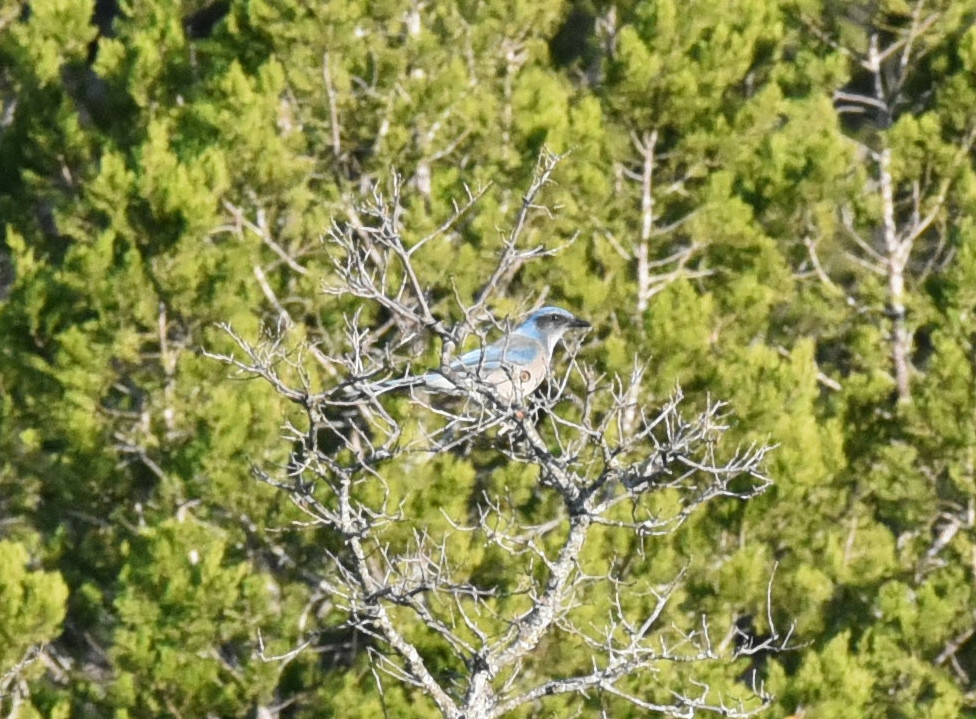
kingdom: Animalia
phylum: Chordata
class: Aves
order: Passeriformes
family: Corvidae
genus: Aphelocoma
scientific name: Aphelocoma woodhouseii
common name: Woodhouse's scrub-jay
